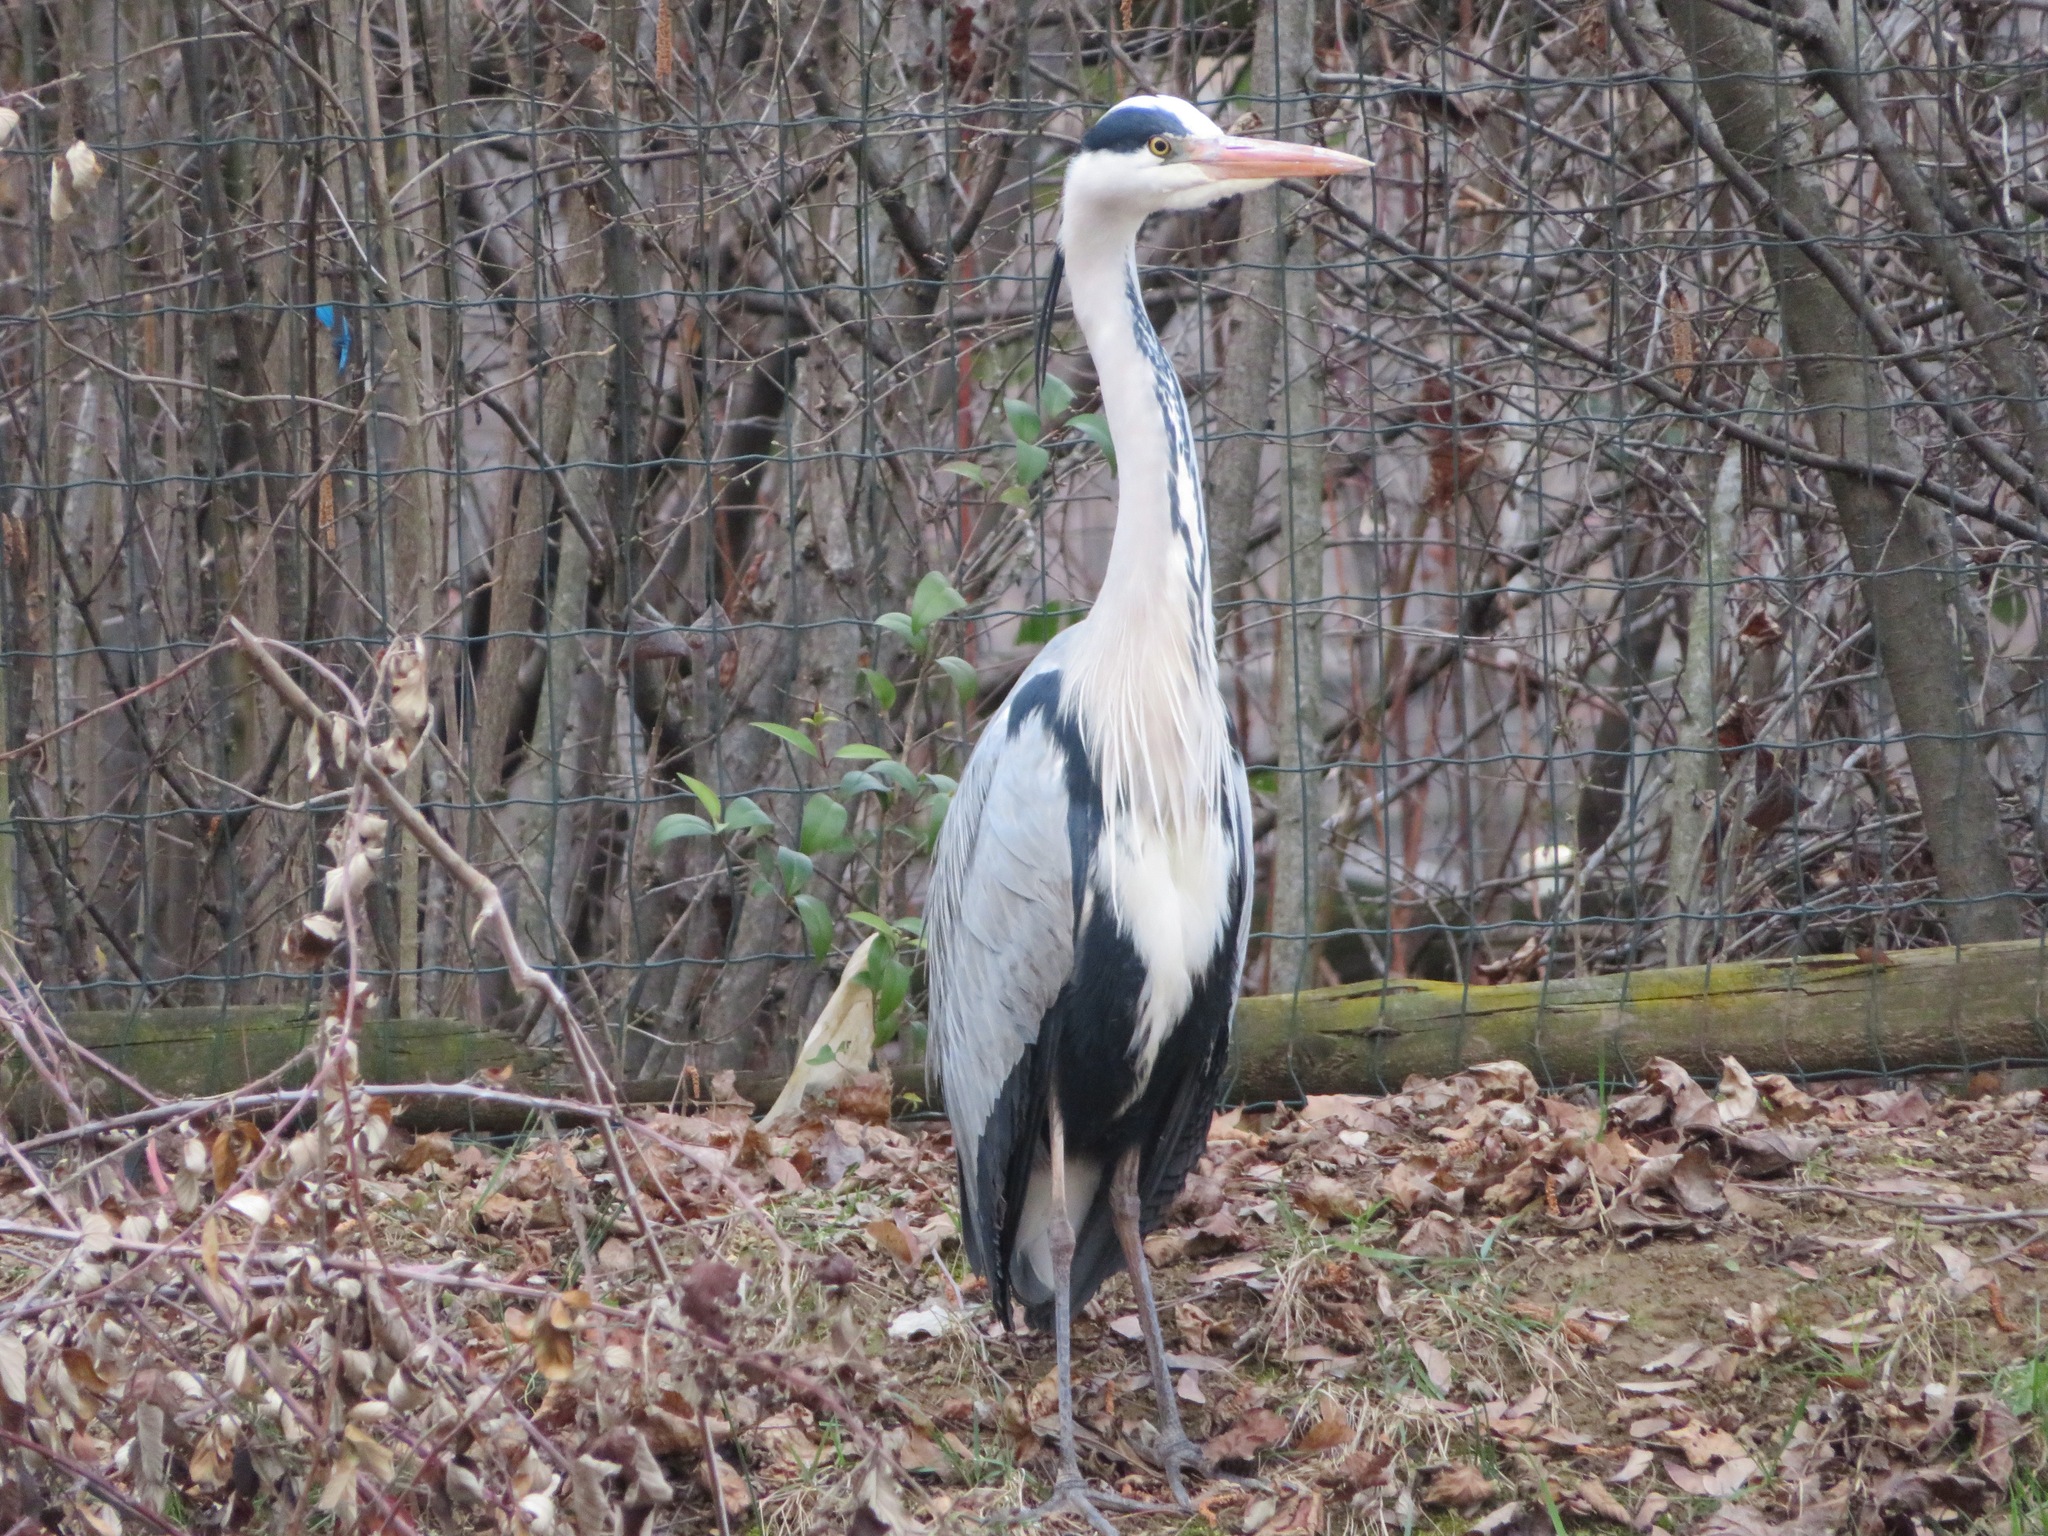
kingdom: Animalia
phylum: Chordata
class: Aves
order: Pelecaniformes
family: Ardeidae
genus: Ardea
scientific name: Ardea cinerea
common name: Grey heron
